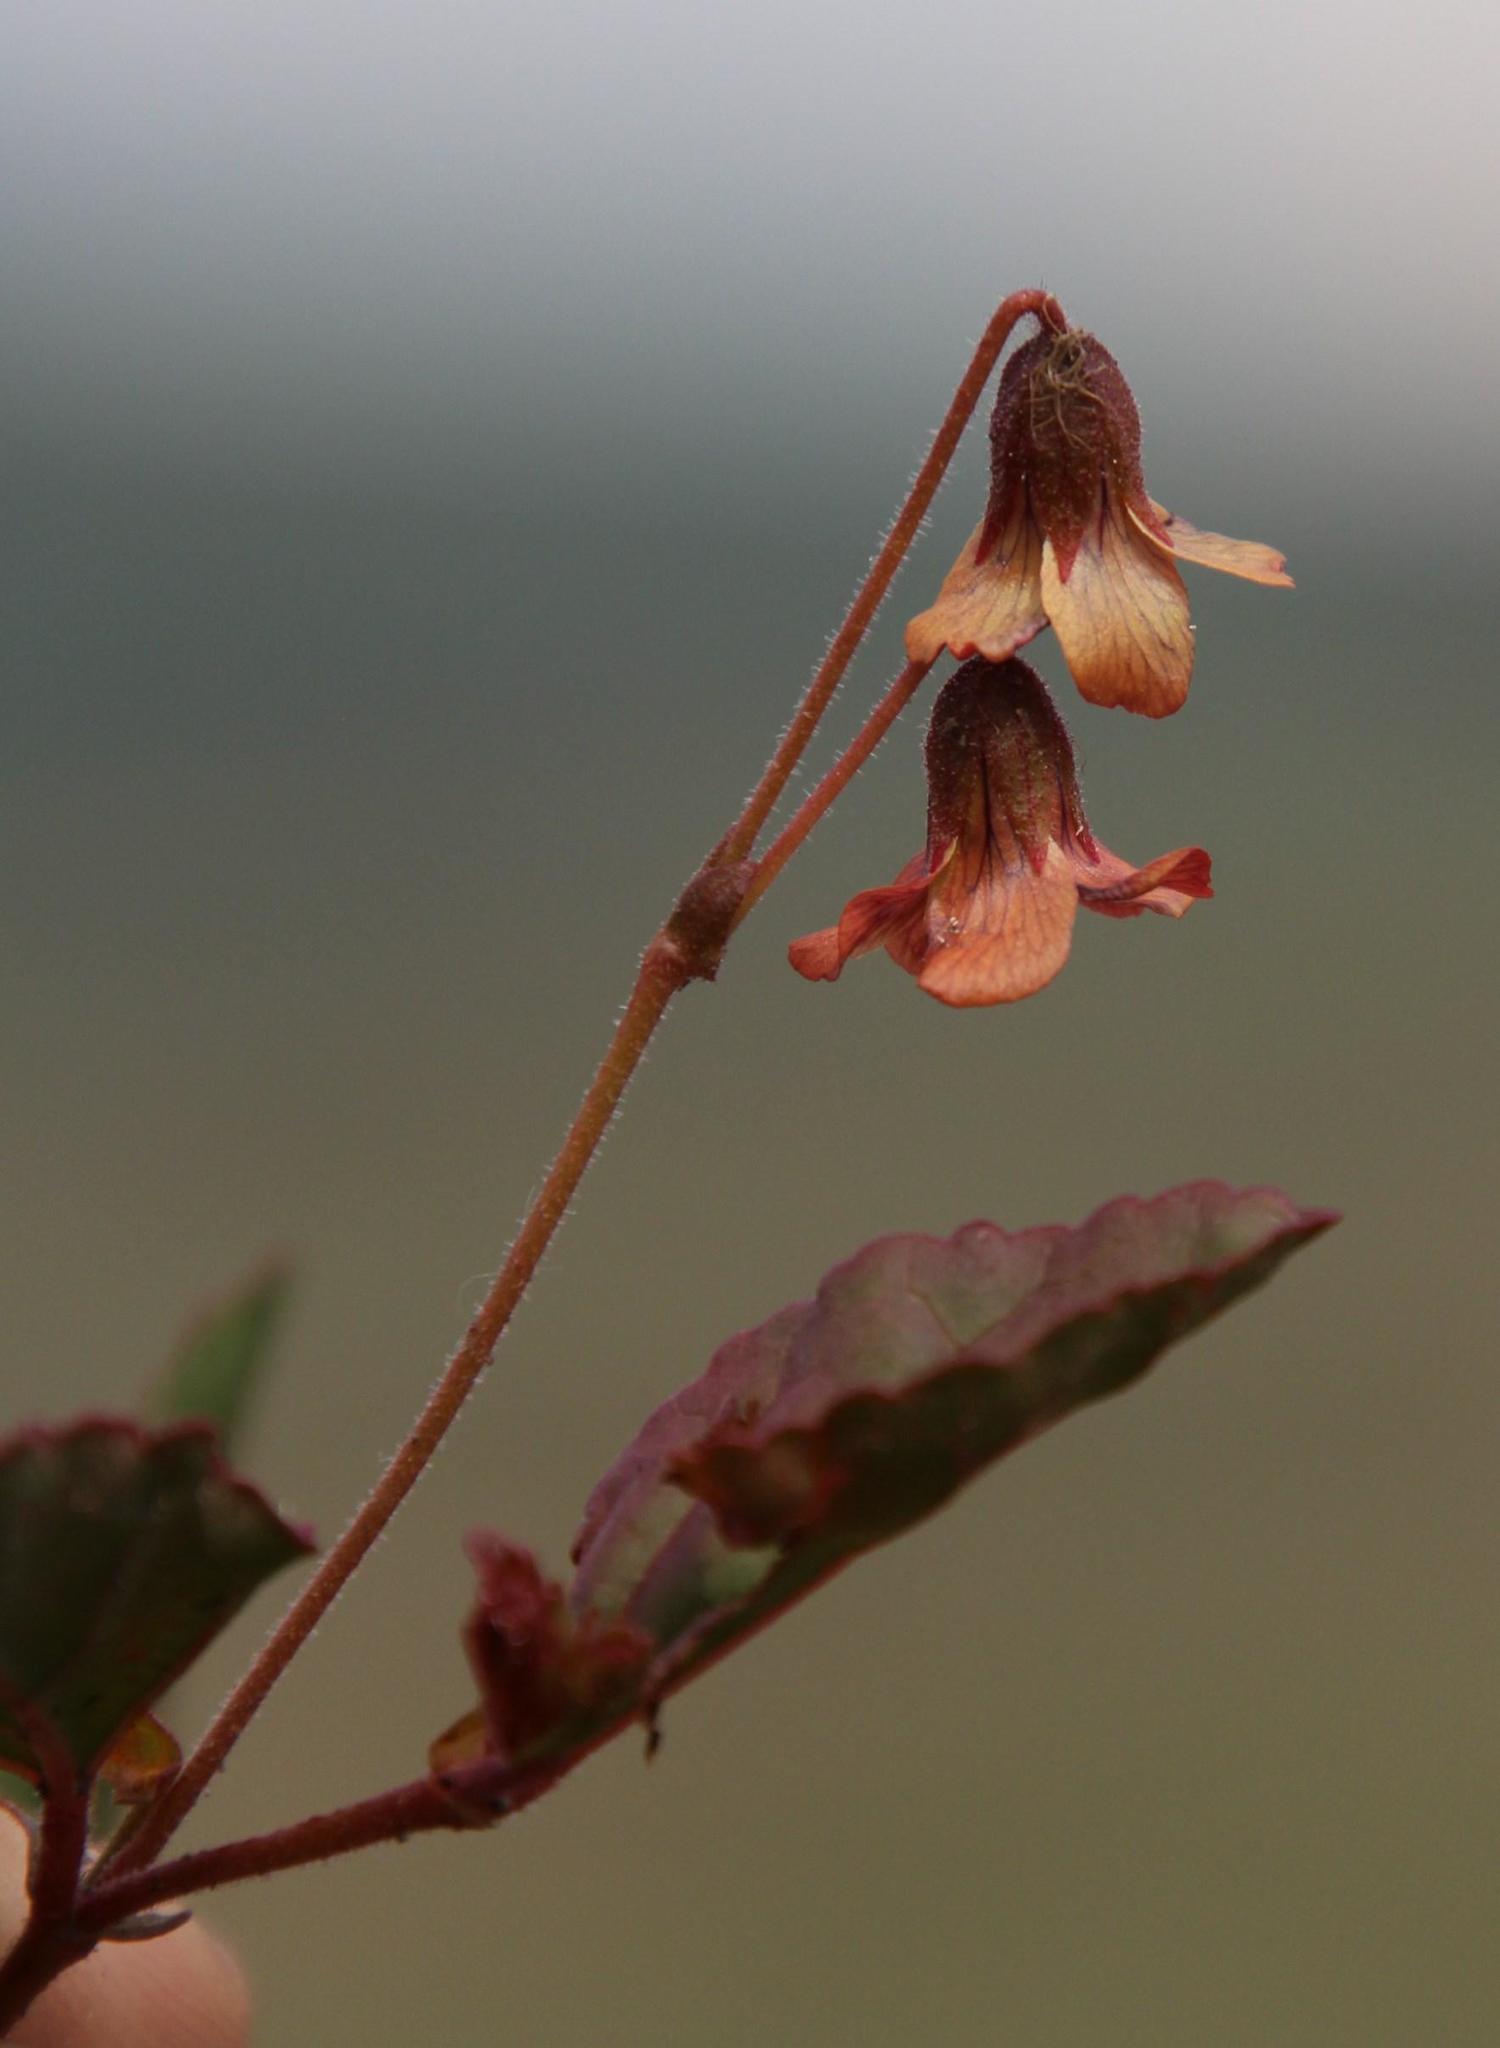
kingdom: Plantae
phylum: Tracheophyta
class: Magnoliopsida
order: Malvales
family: Malvaceae
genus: Hermannia
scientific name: Hermannia depressa
